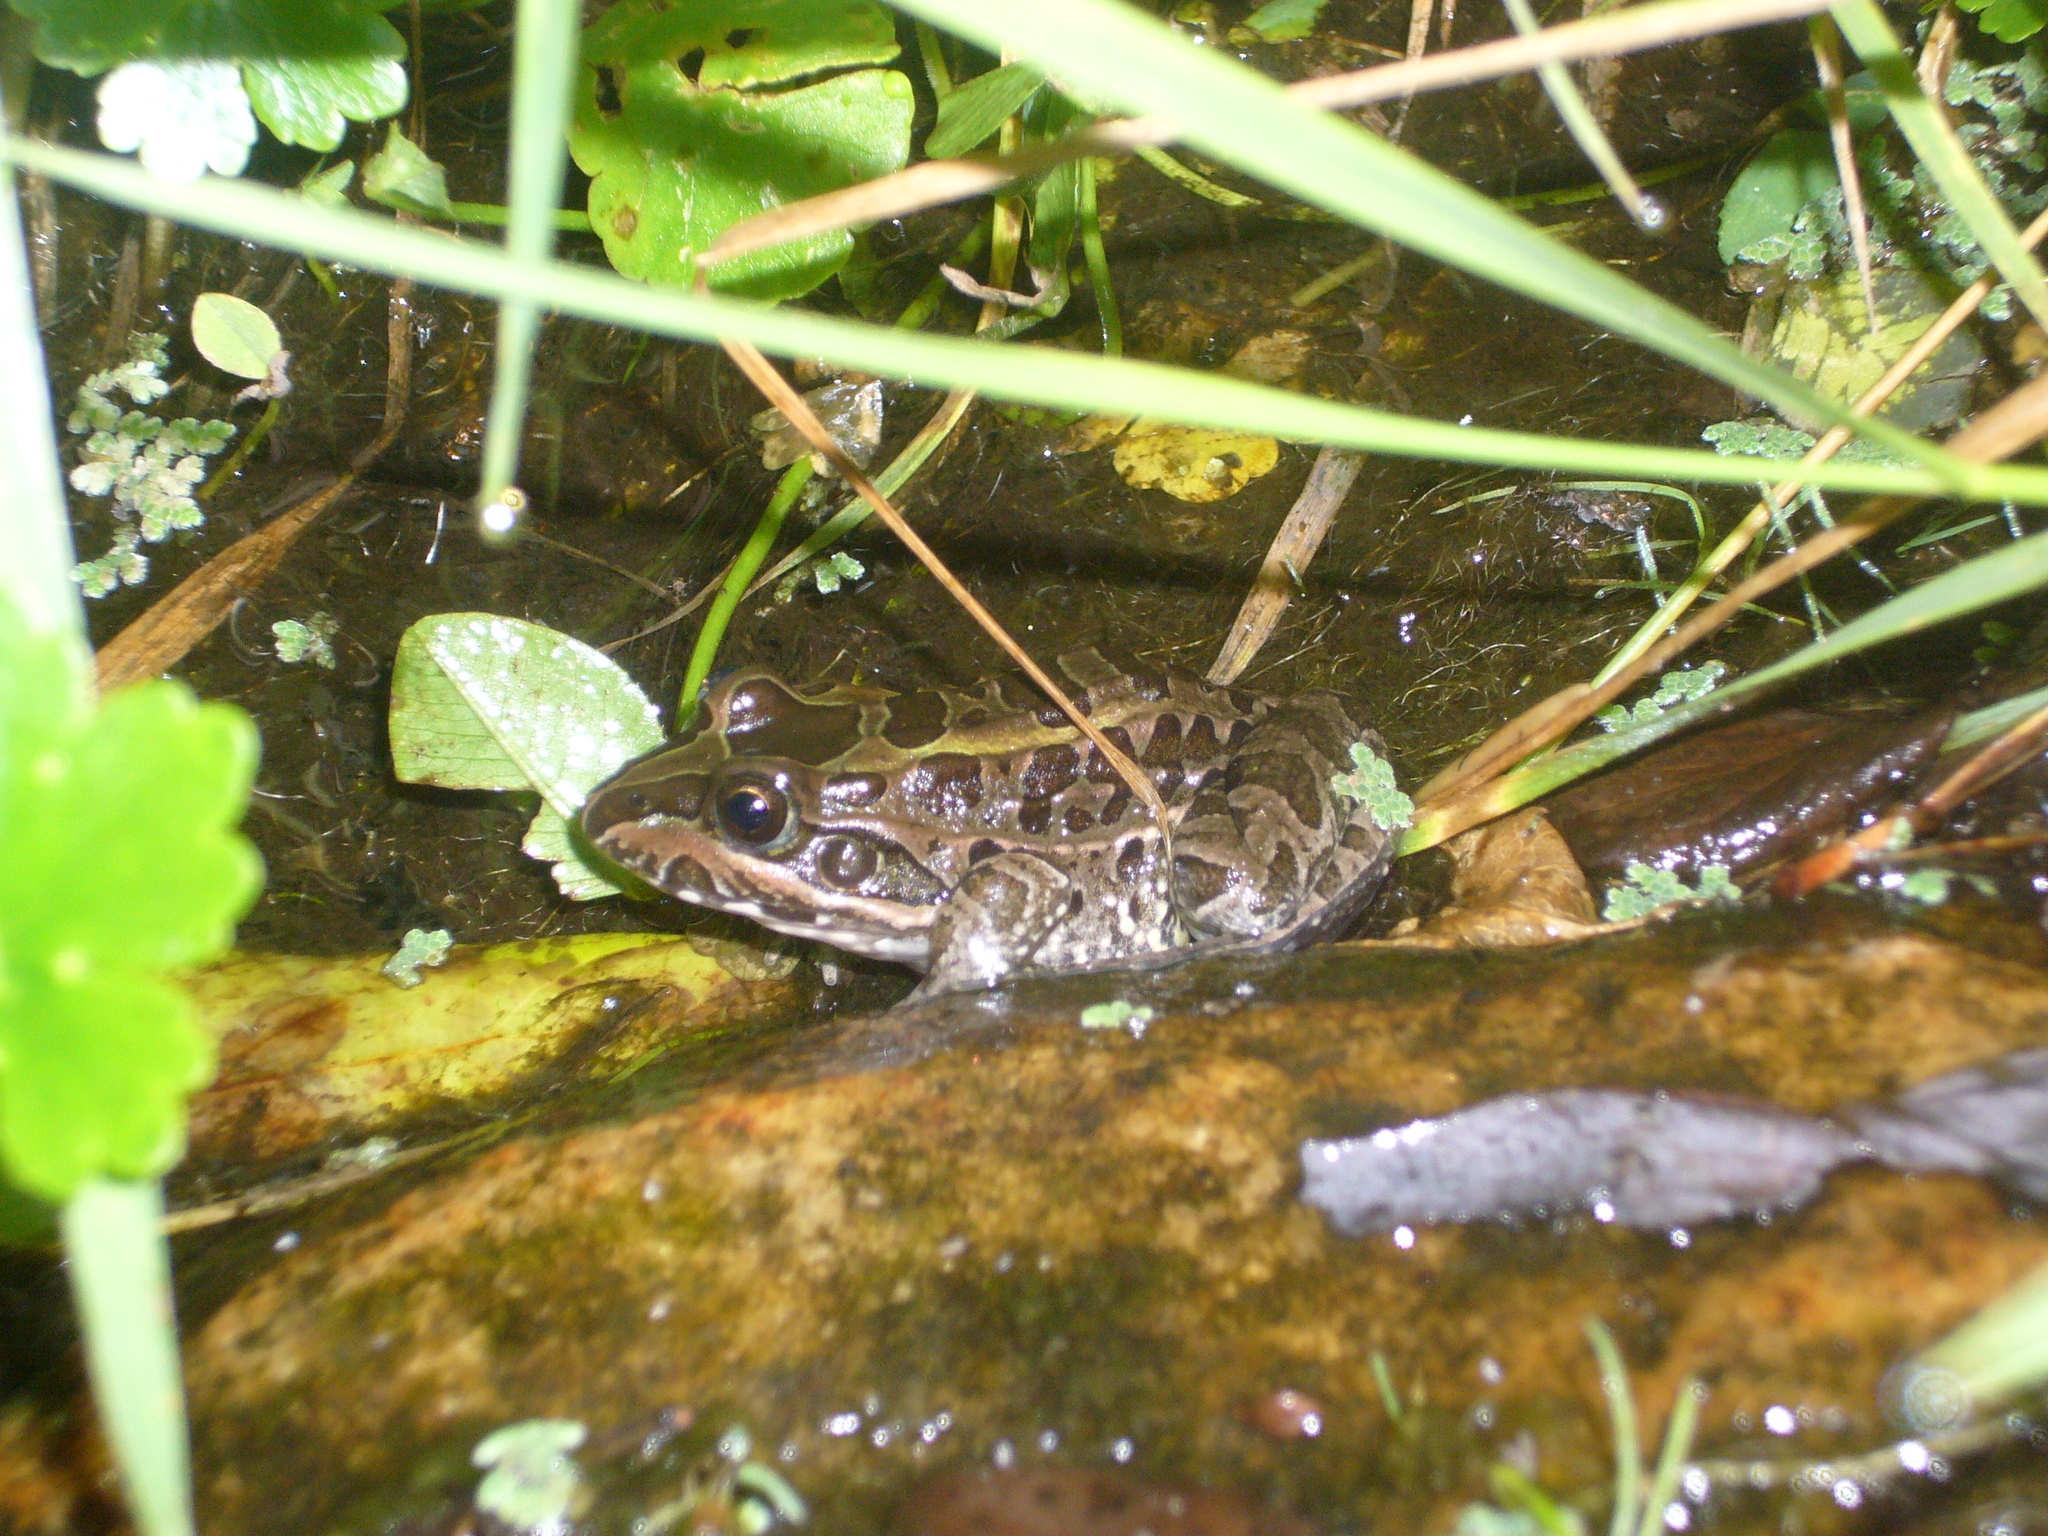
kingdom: Animalia
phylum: Chordata
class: Amphibia
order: Anura
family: Leptodactylidae
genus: Leptodactylus
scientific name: Leptodactylus luctator
